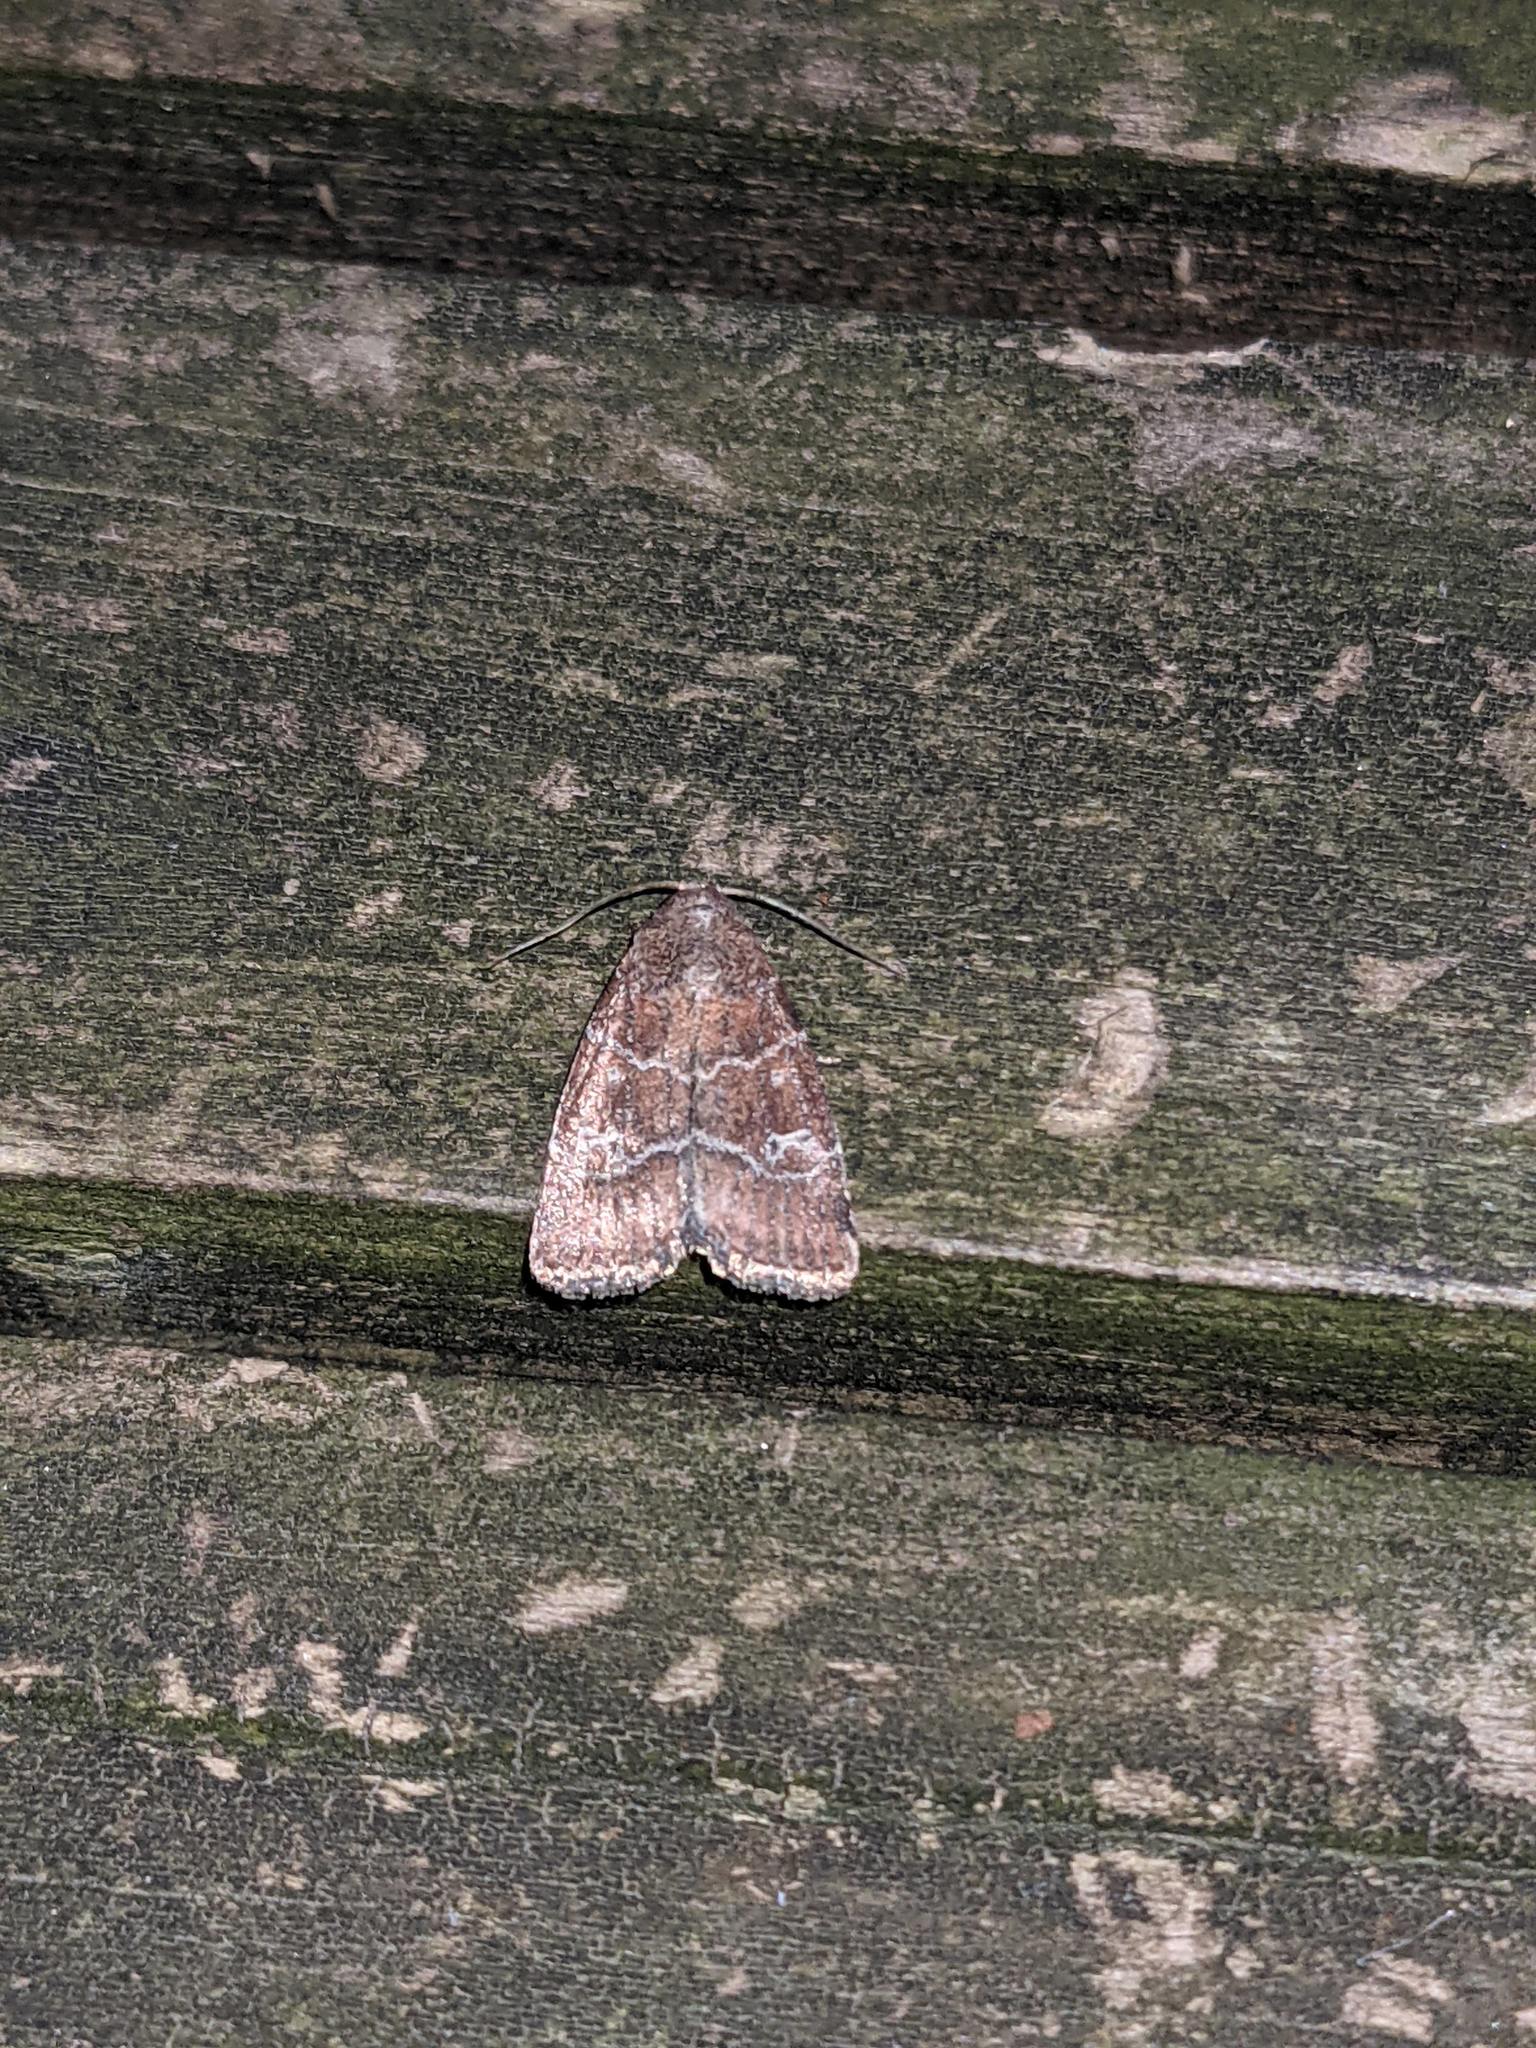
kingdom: Animalia
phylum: Arthropoda
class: Insecta
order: Lepidoptera
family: Noctuidae
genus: Elaphria
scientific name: Elaphria grata
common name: Grateful midget moth
